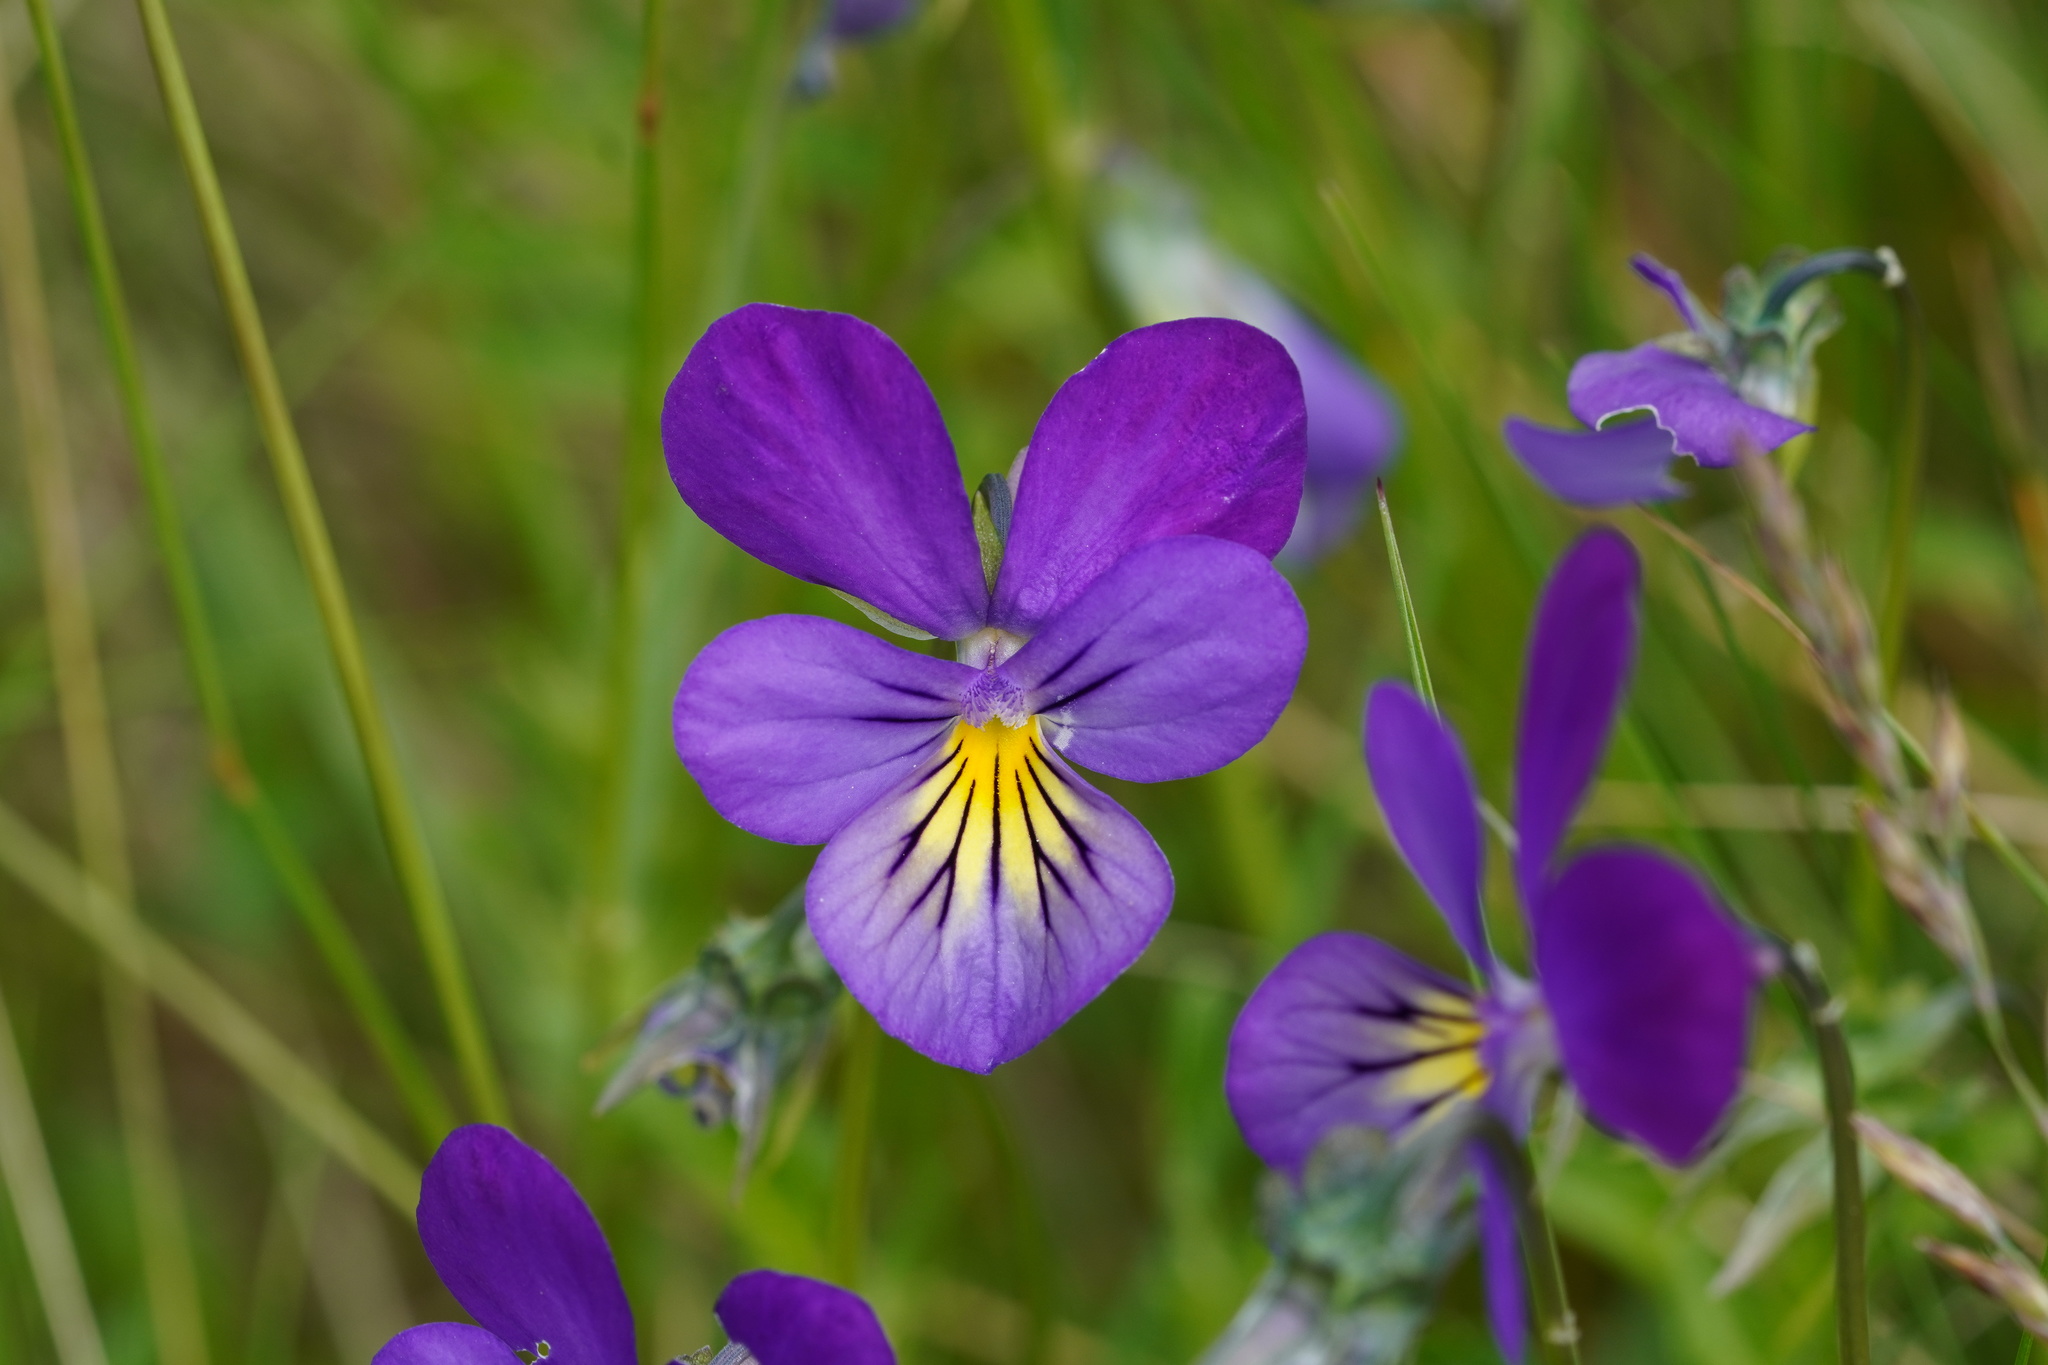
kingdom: Plantae
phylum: Tracheophyta
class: Magnoliopsida
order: Malpighiales
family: Violaceae
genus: Viola
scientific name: Viola tricolor
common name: Pansy
